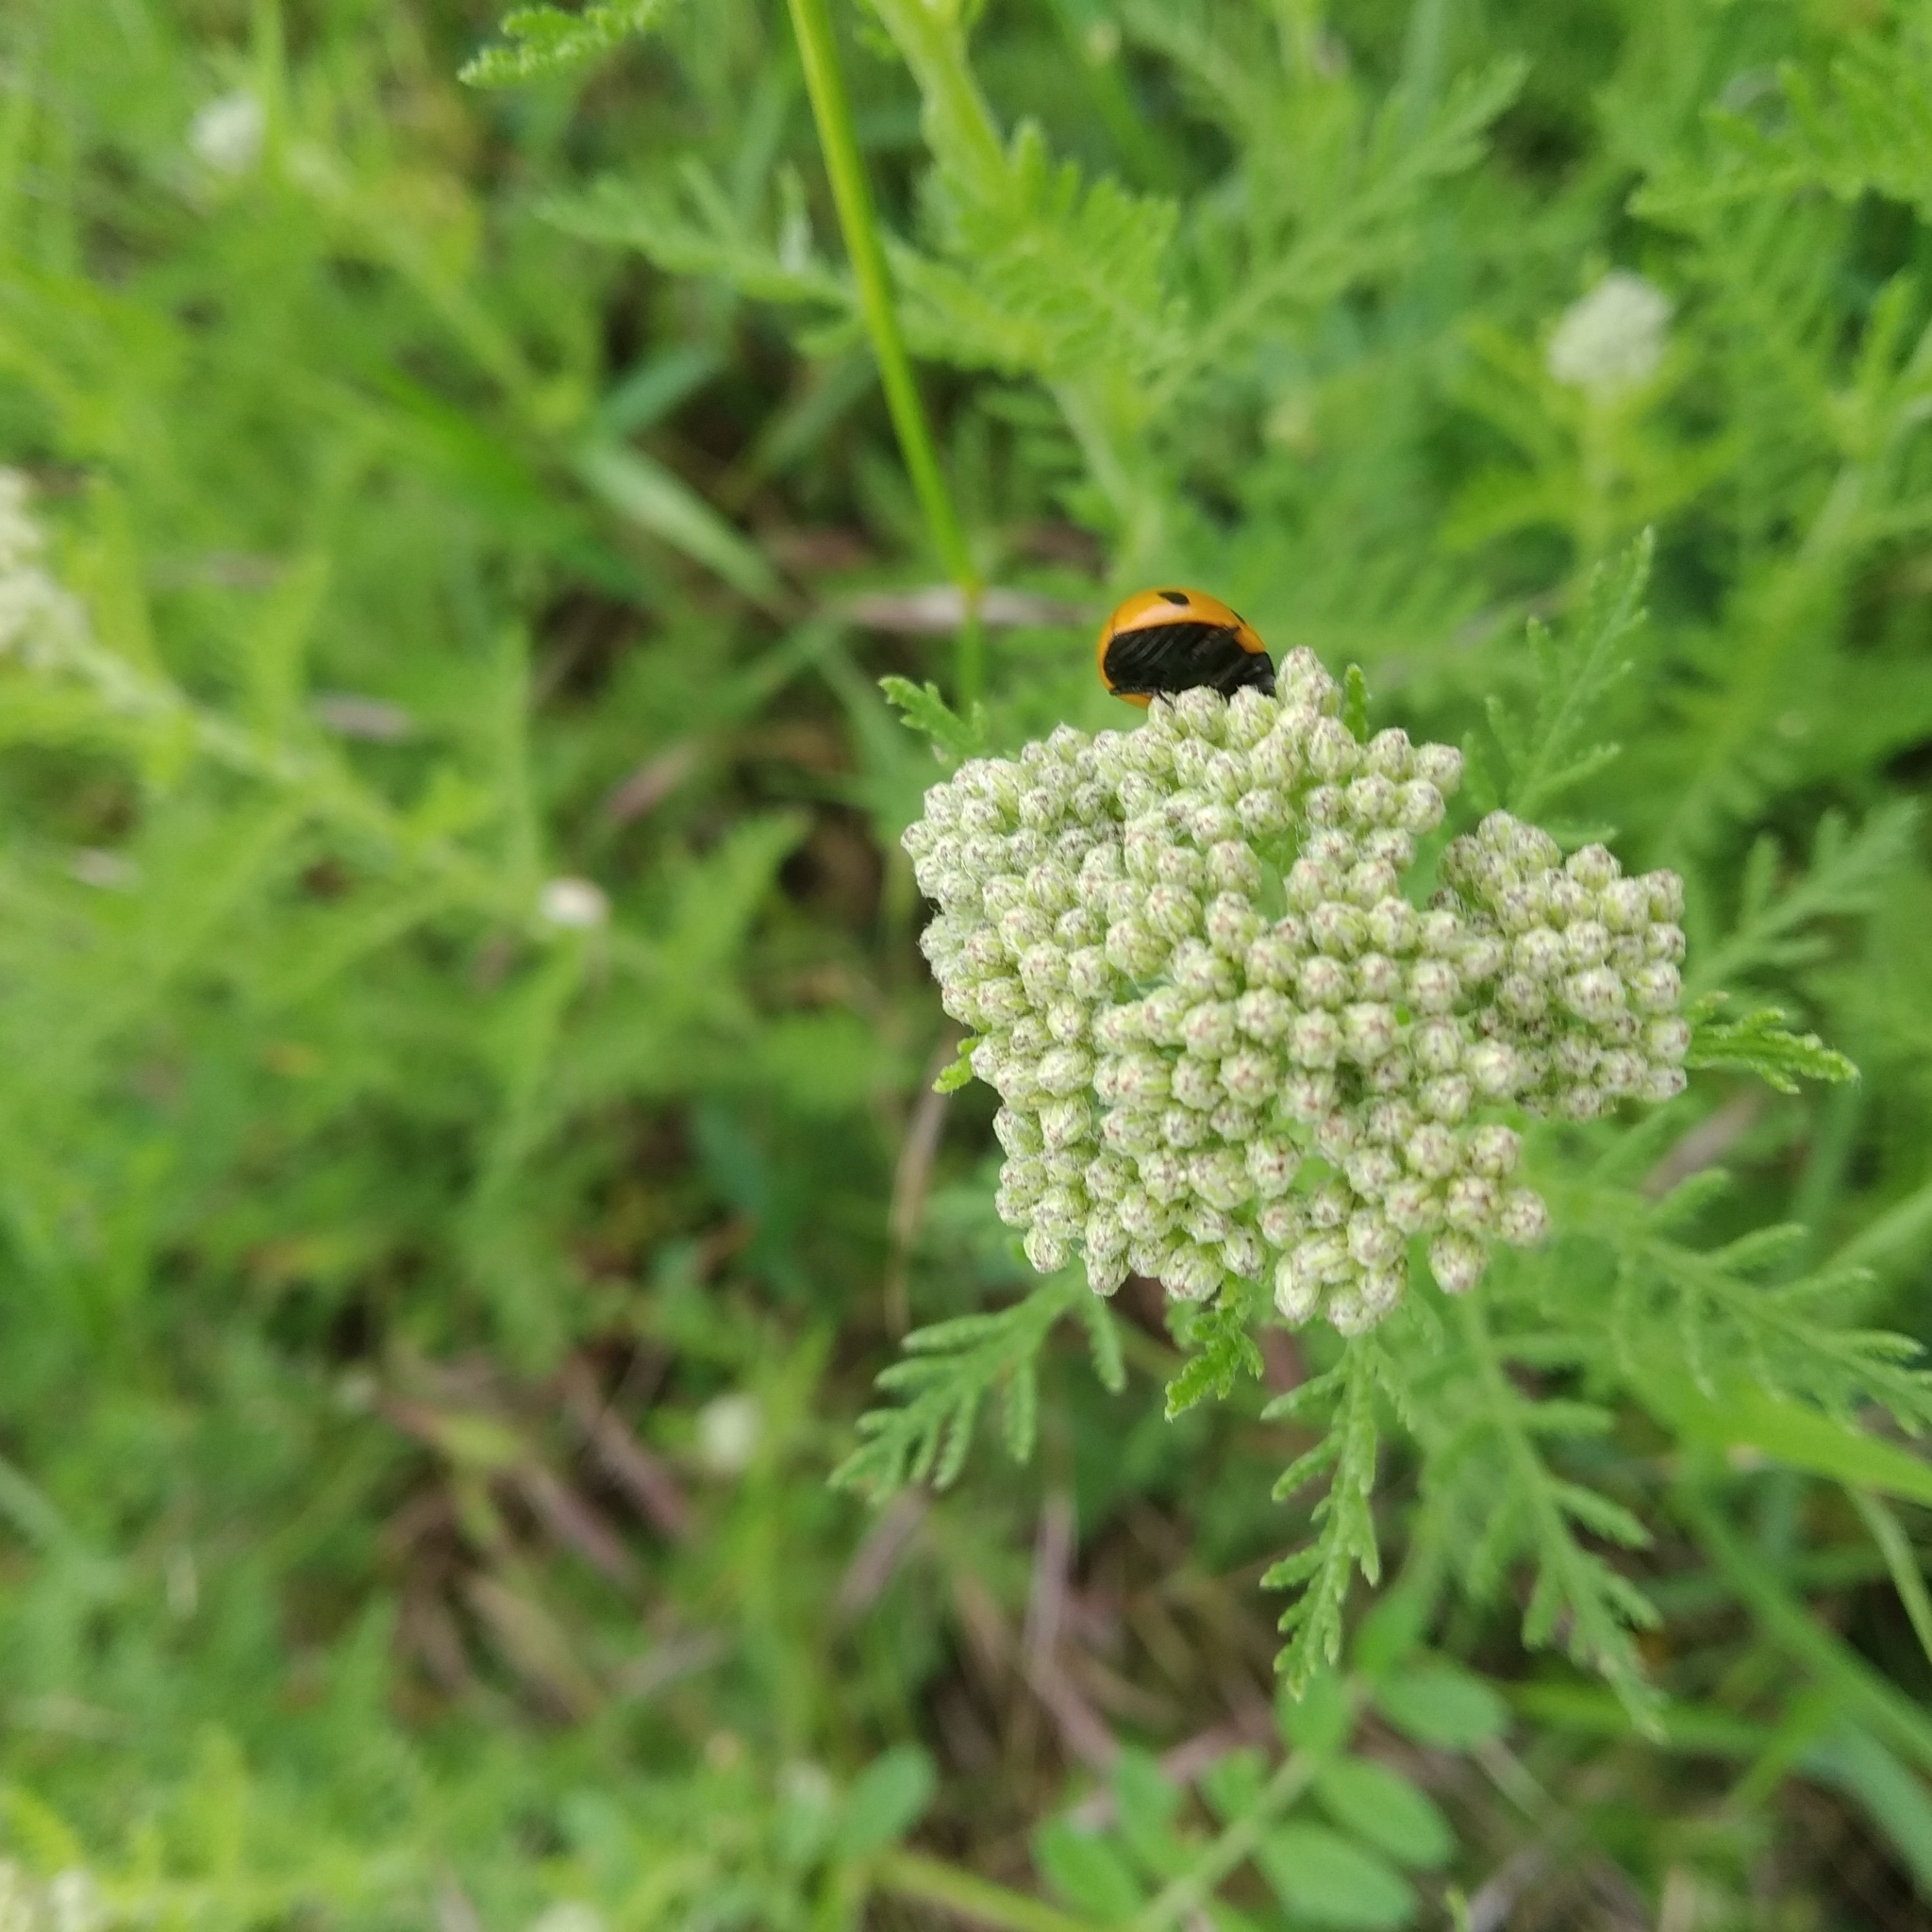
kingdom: Animalia
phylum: Arthropoda
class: Insecta
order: Coleoptera
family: Coccinellidae
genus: Coccinella
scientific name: Coccinella septempunctata
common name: Sevenspotted lady beetle
